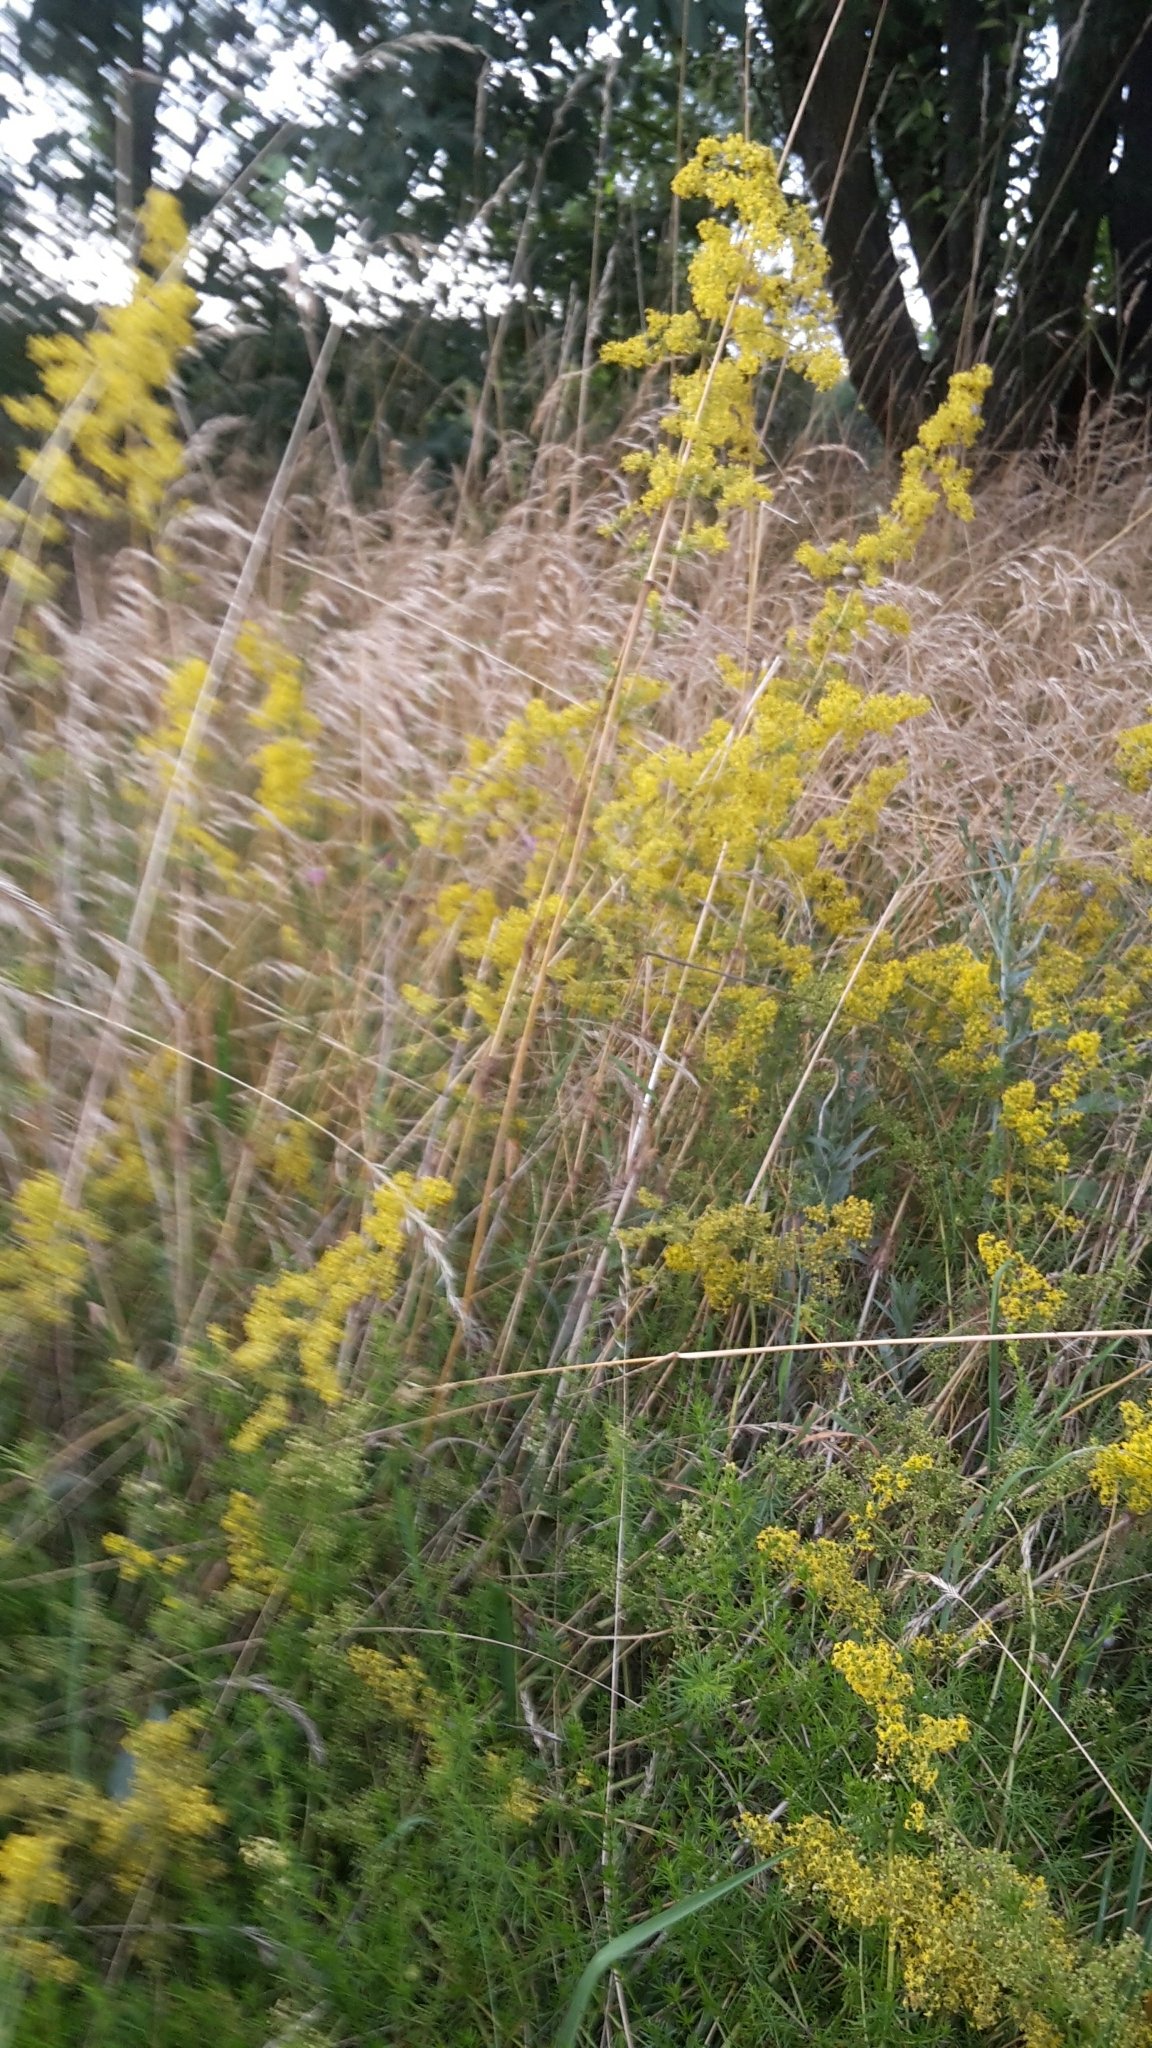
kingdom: Plantae
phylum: Tracheophyta
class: Magnoliopsida
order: Gentianales
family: Rubiaceae
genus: Galium
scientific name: Galium verum
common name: Lady's bedstraw
